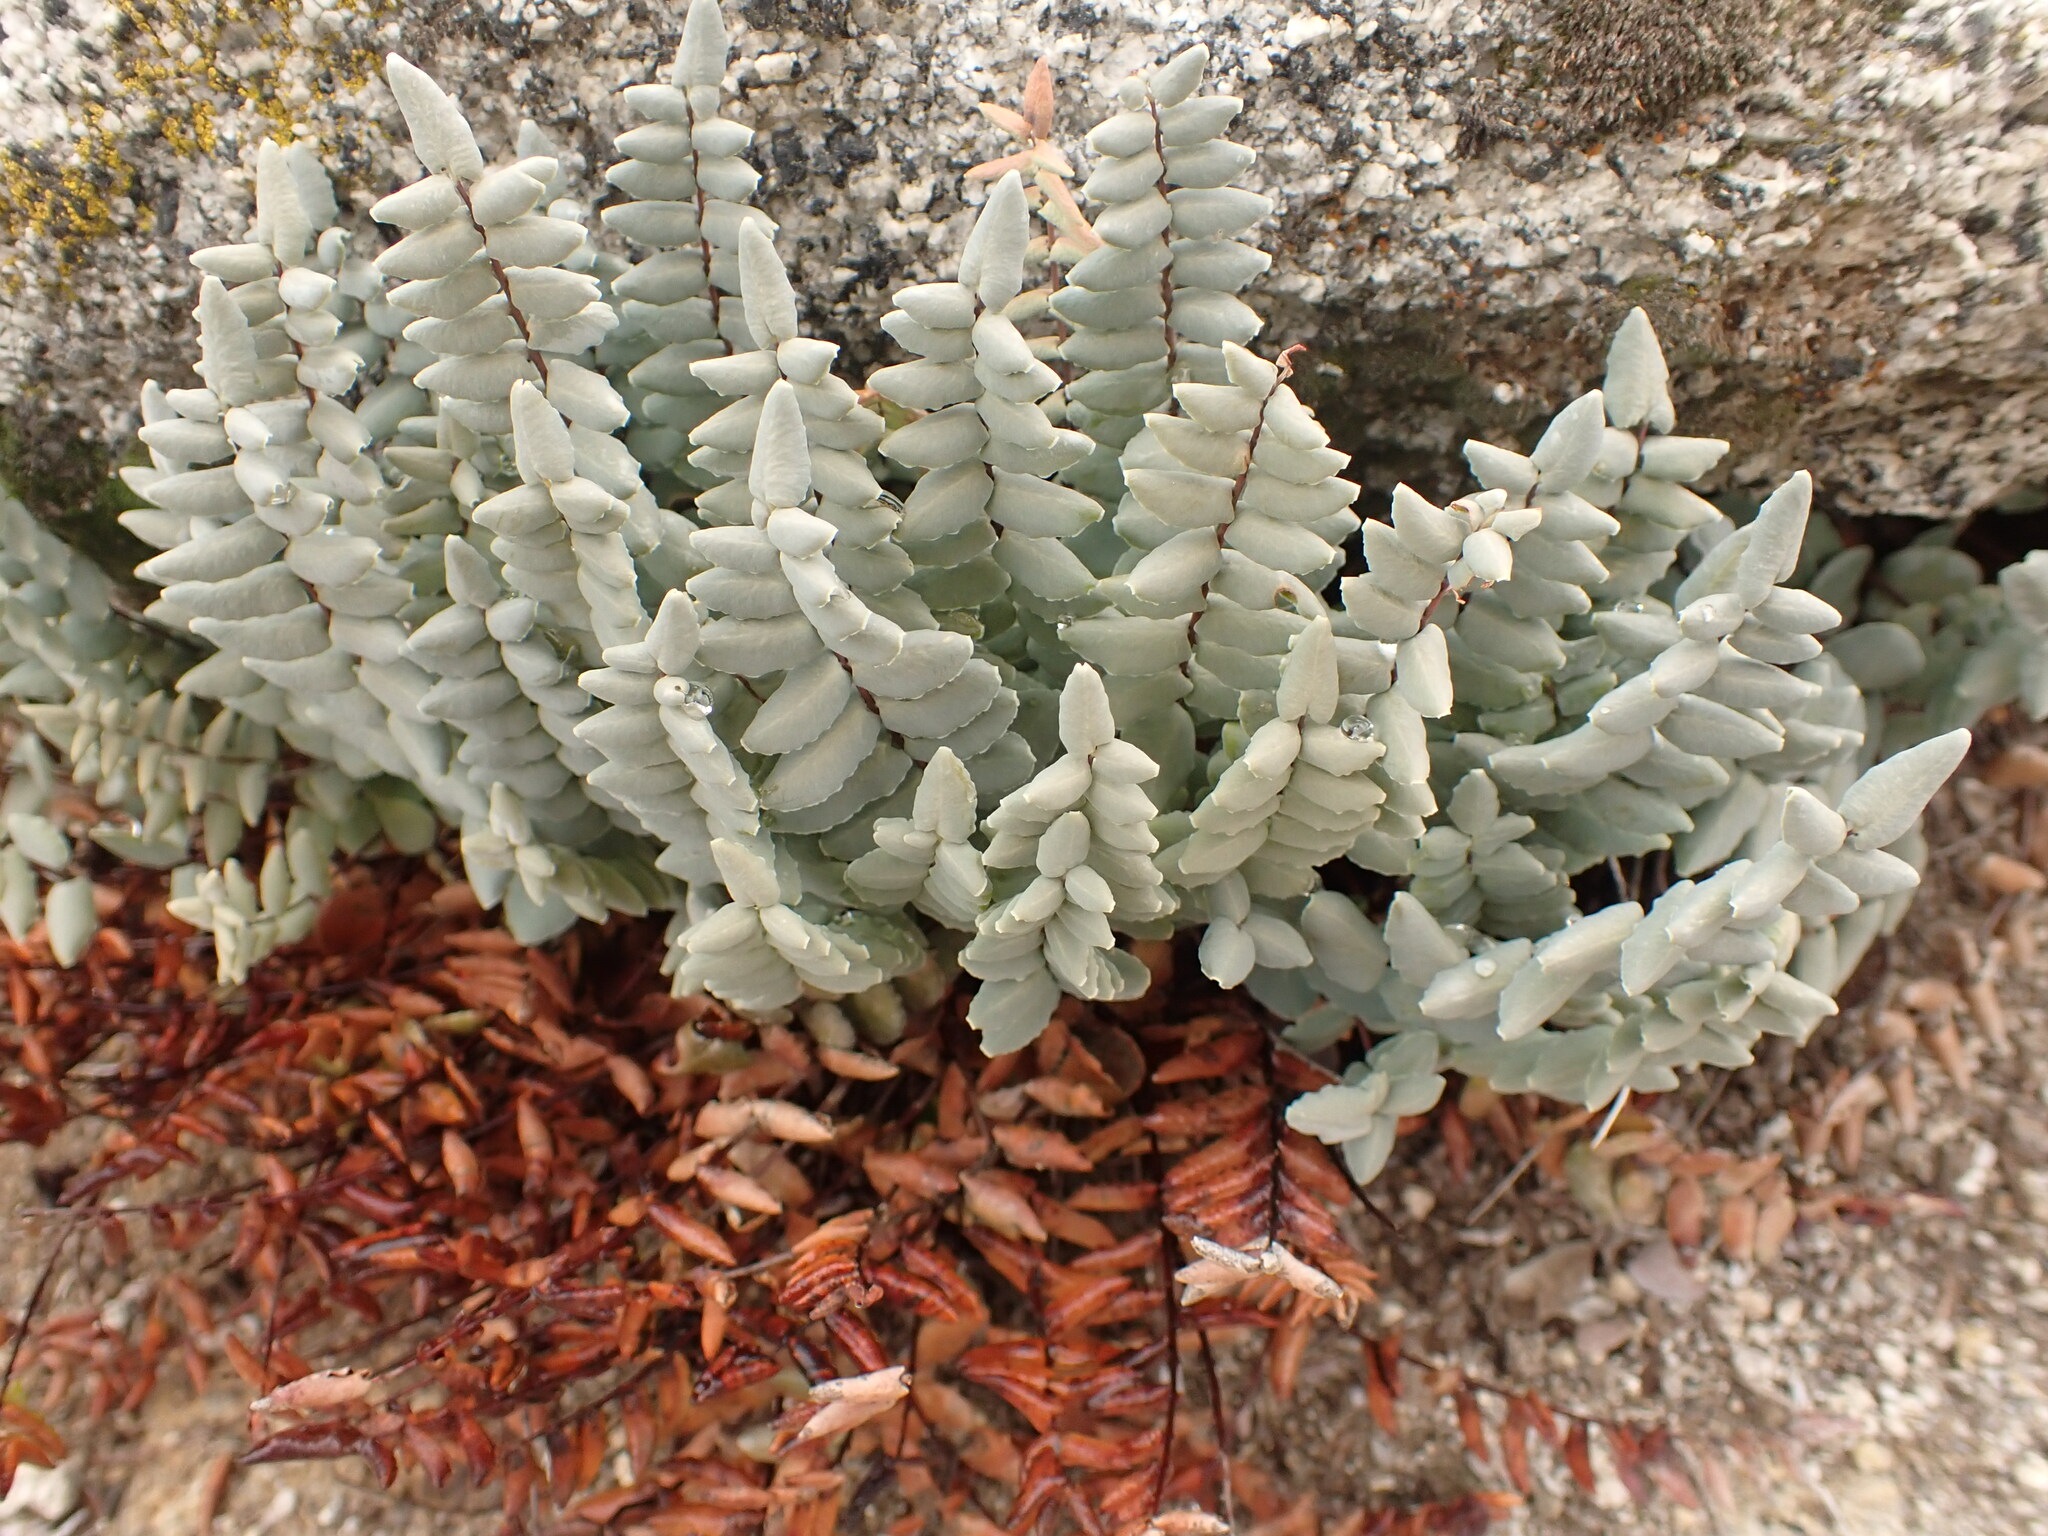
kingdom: Plantae
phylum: Tracheophyta
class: Polypodiopsida
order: Polypodiales
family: Pteridaceae
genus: Pellaea
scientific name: Pellaea bridgesii
